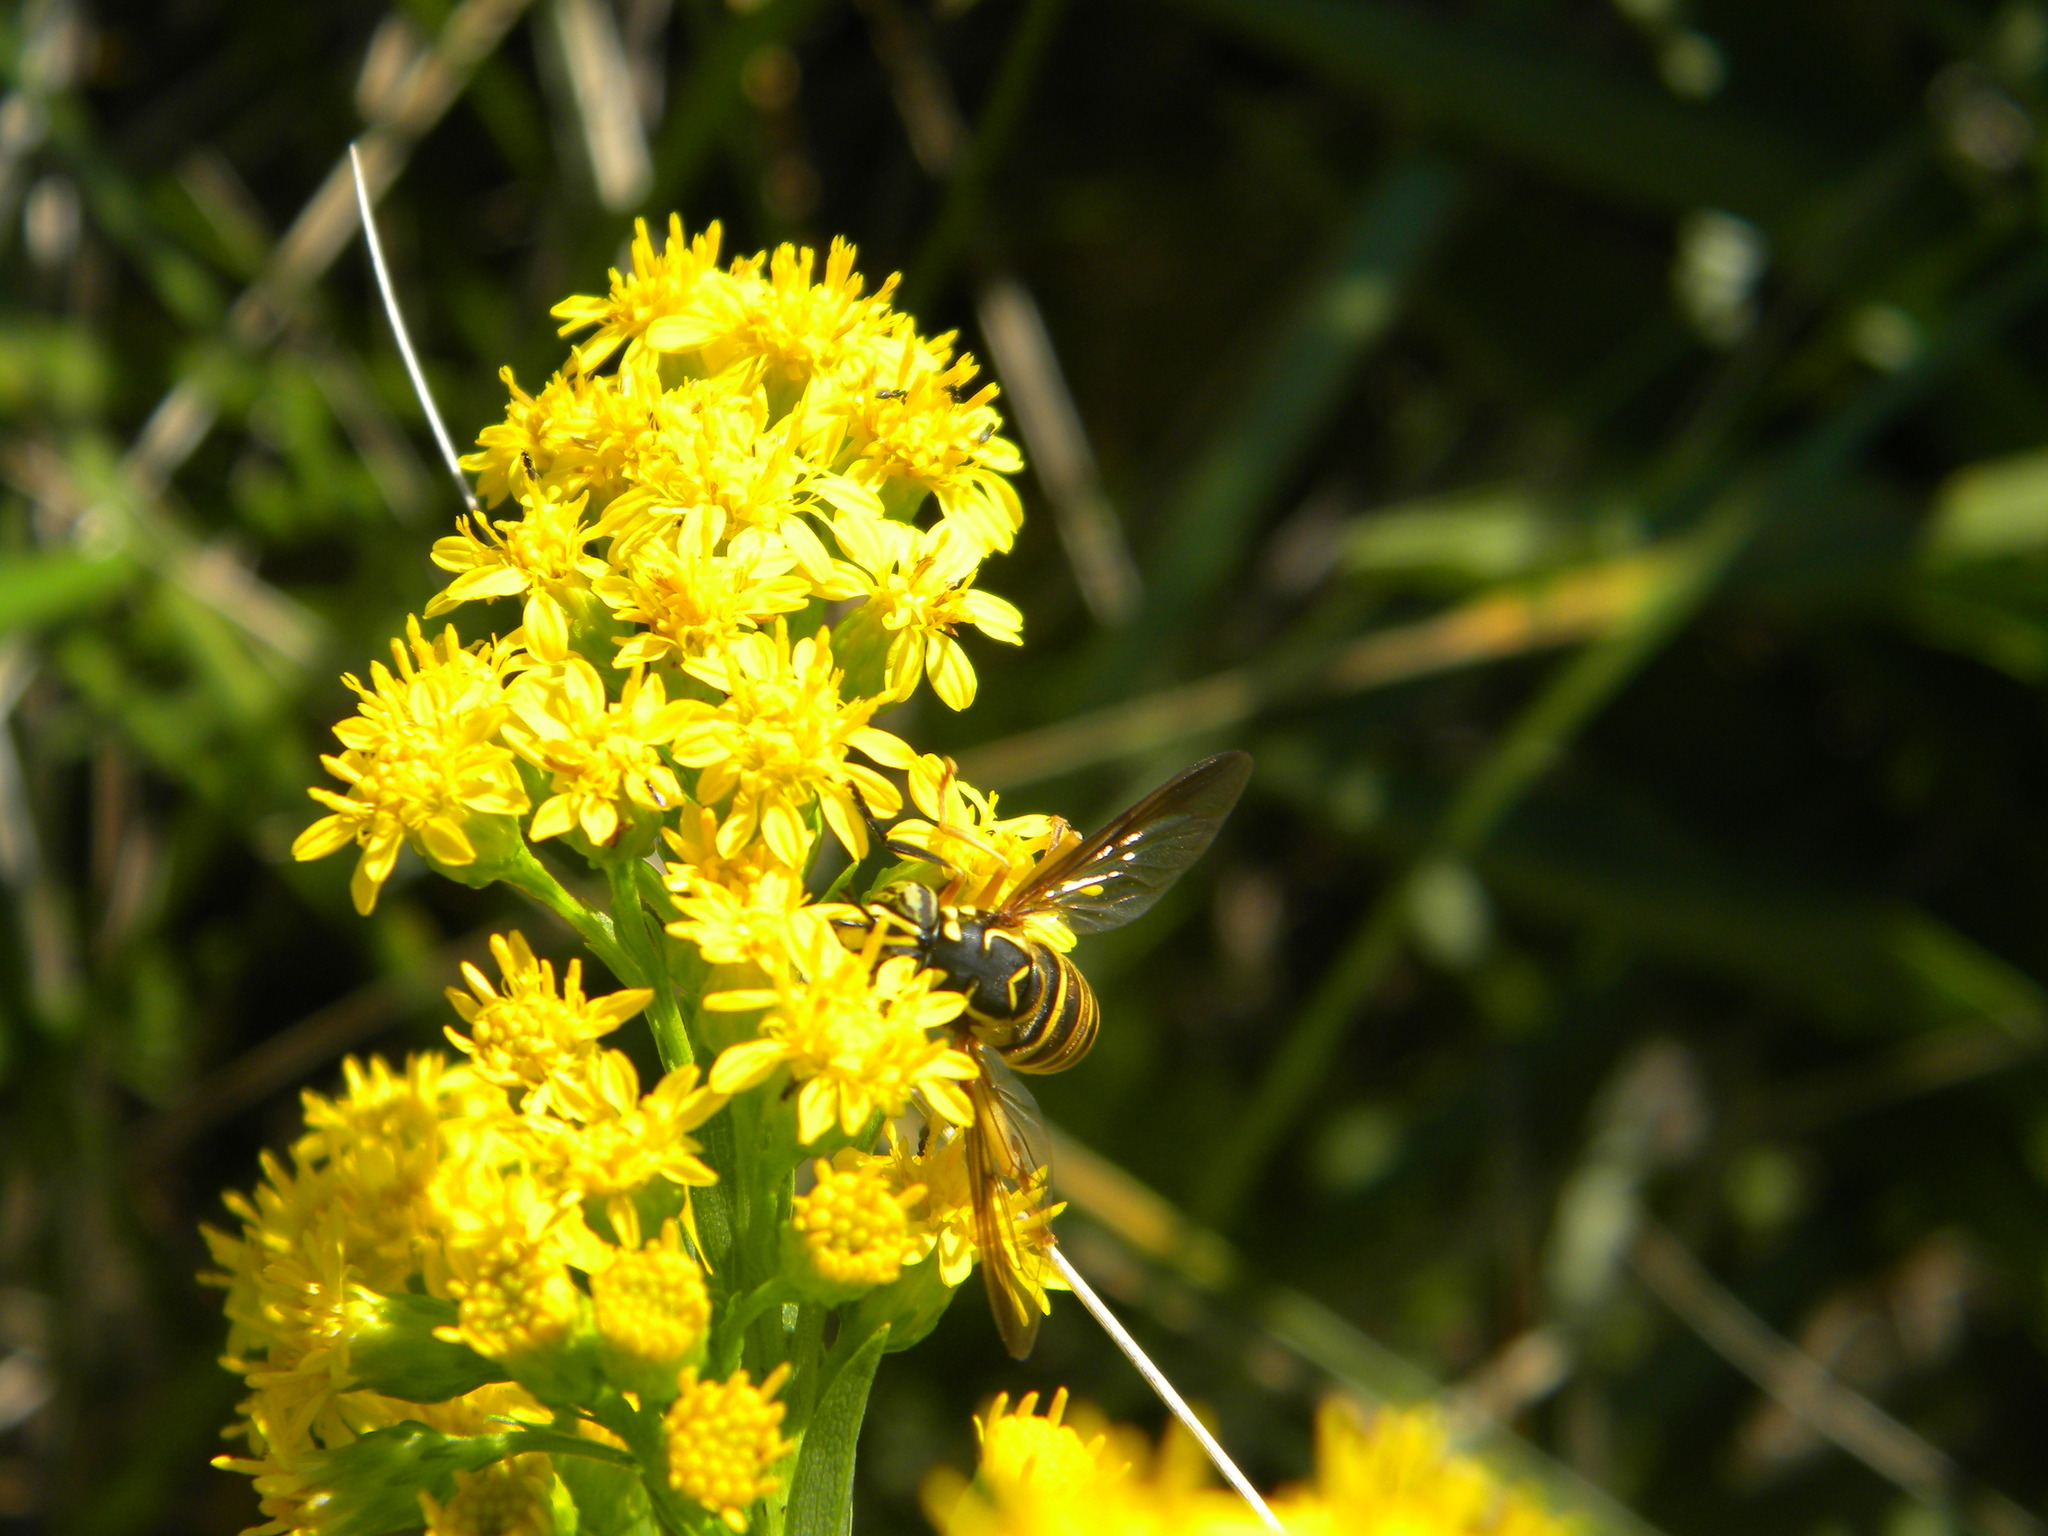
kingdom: Animalia
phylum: Arthropoda
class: Insecta
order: Diptera
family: Syrphidae
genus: Spilomyia
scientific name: Spilomyia longicornis
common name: Eastern hornet fly
